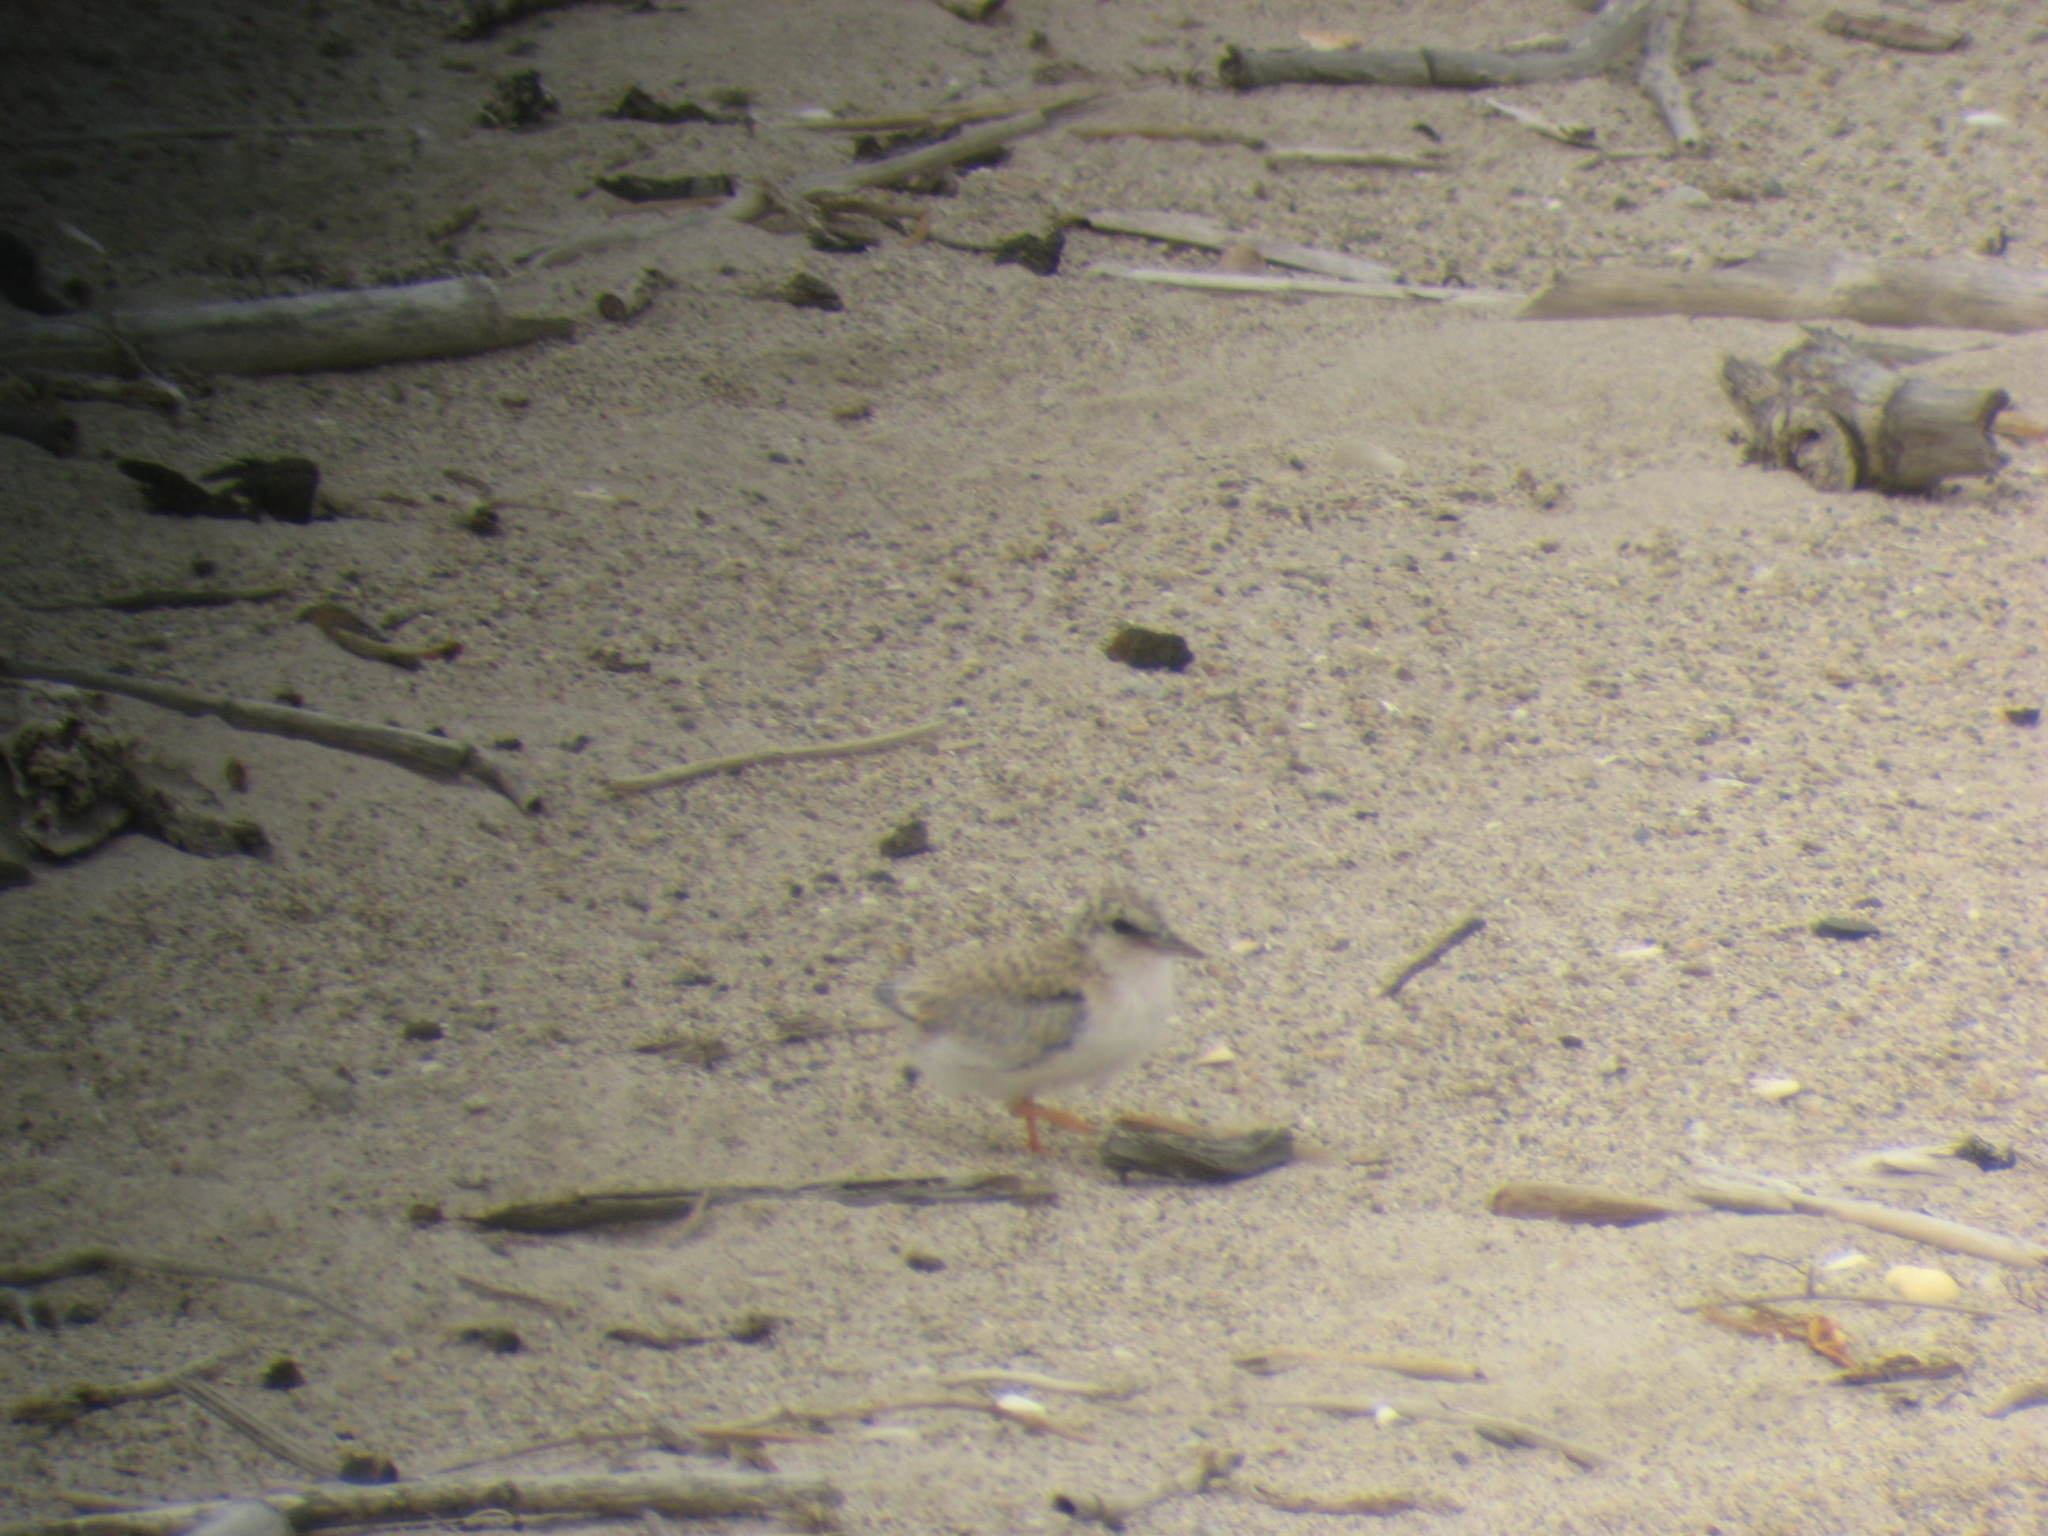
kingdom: Animalia
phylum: Chordata
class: Aves
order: Charadriiformes
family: Laridae
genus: Sternula
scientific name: Sternula antillarum
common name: Least tern
